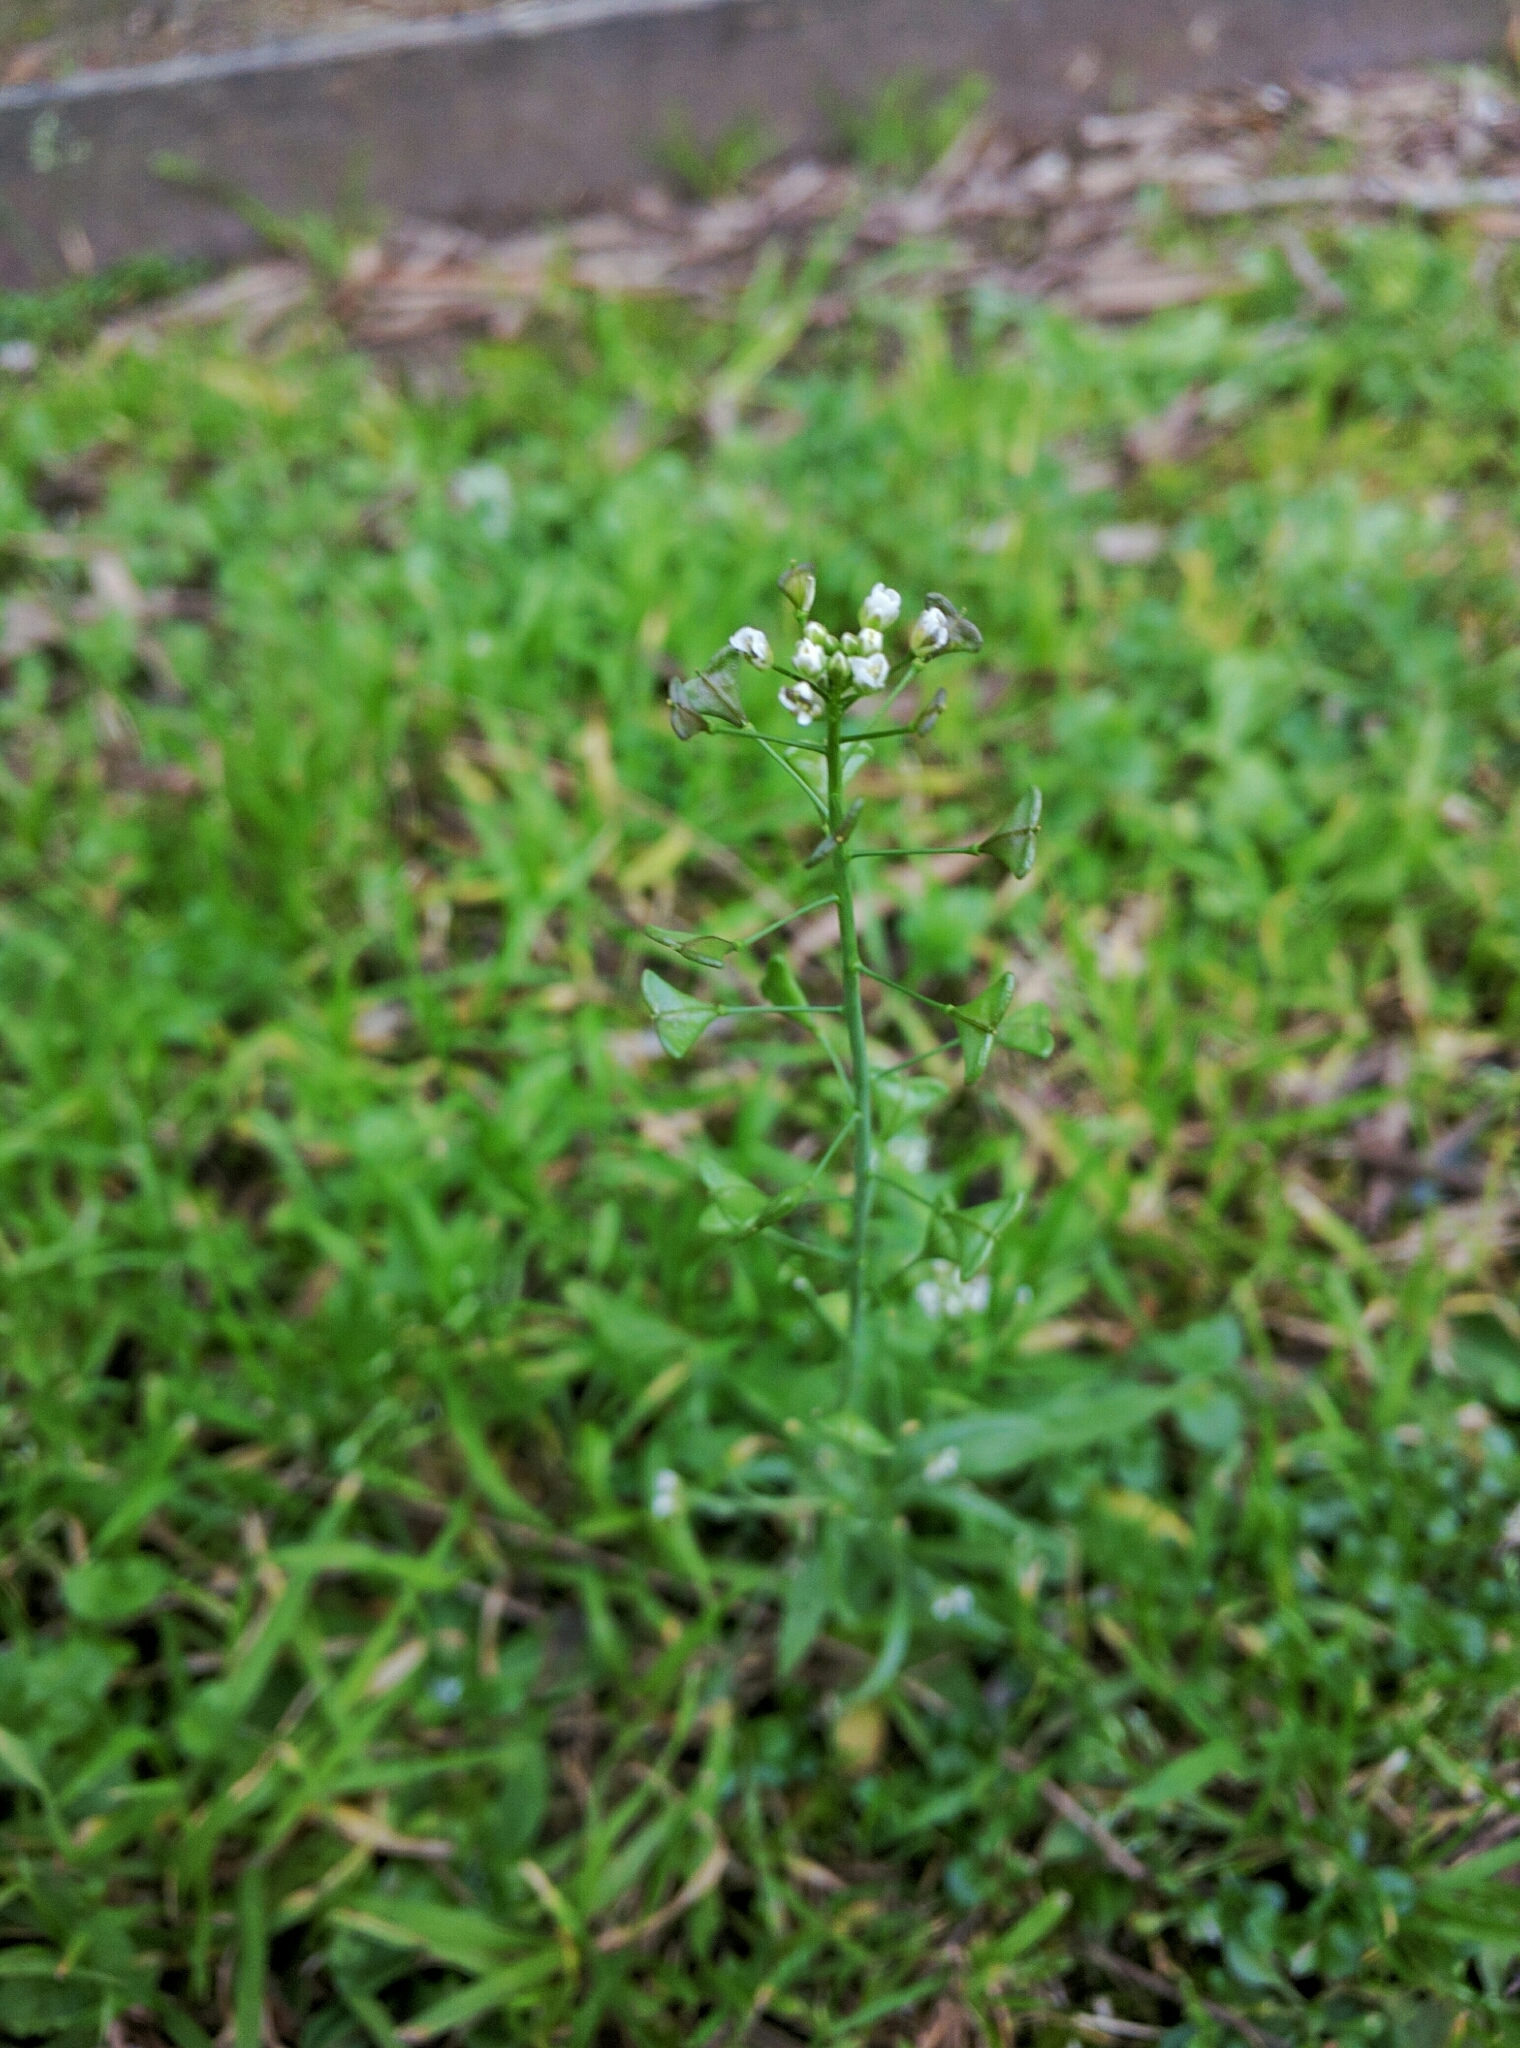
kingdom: Plantae
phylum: Tracheophyta
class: Magnoliopsida
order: Brassicales
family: Brassicaceae
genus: Capsella
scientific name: Capsella bursa-pastoris
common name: Shepherd's purse
